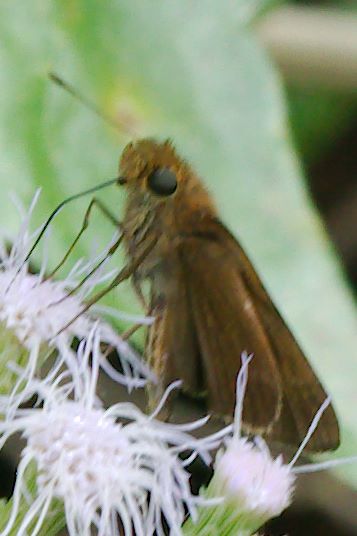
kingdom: Animalia
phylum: Arthropoda
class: Insecta
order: Lepidoptera
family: Hesperiidae
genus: Panoquina
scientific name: Panoquina ocola
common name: Ocola skipper
